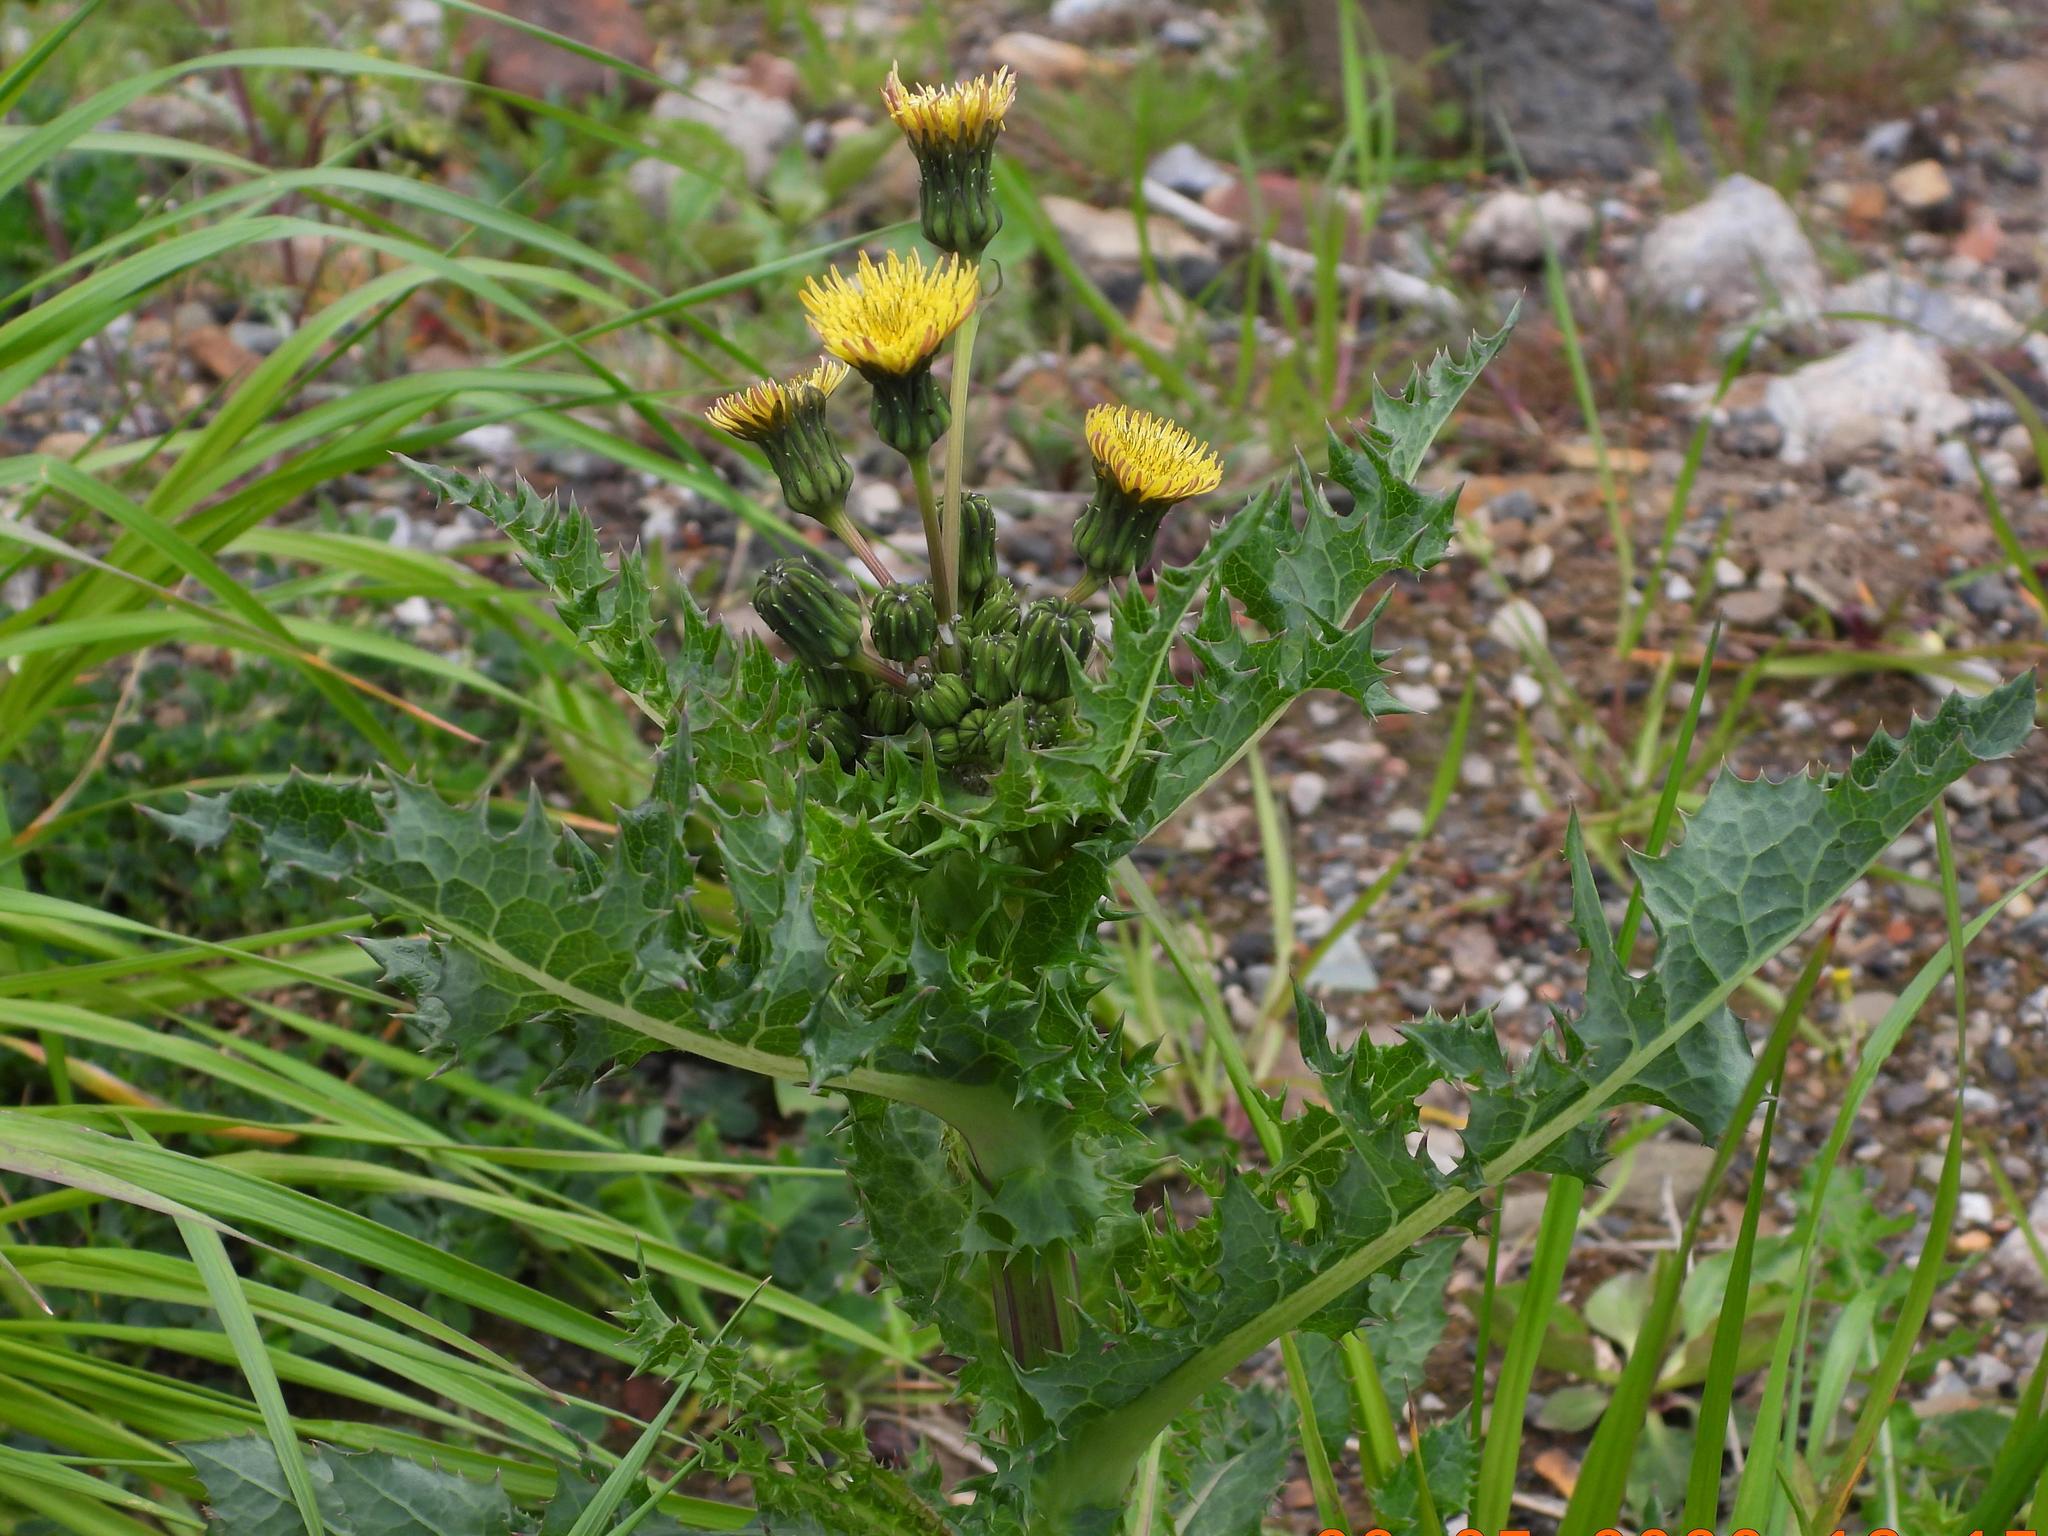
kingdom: Plantae
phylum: Tracheophyta
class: Magnoliopsida
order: Asterales
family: Asteraceae
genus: Sonchus
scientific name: Sonchus asper
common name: Prickly sow-thistle
